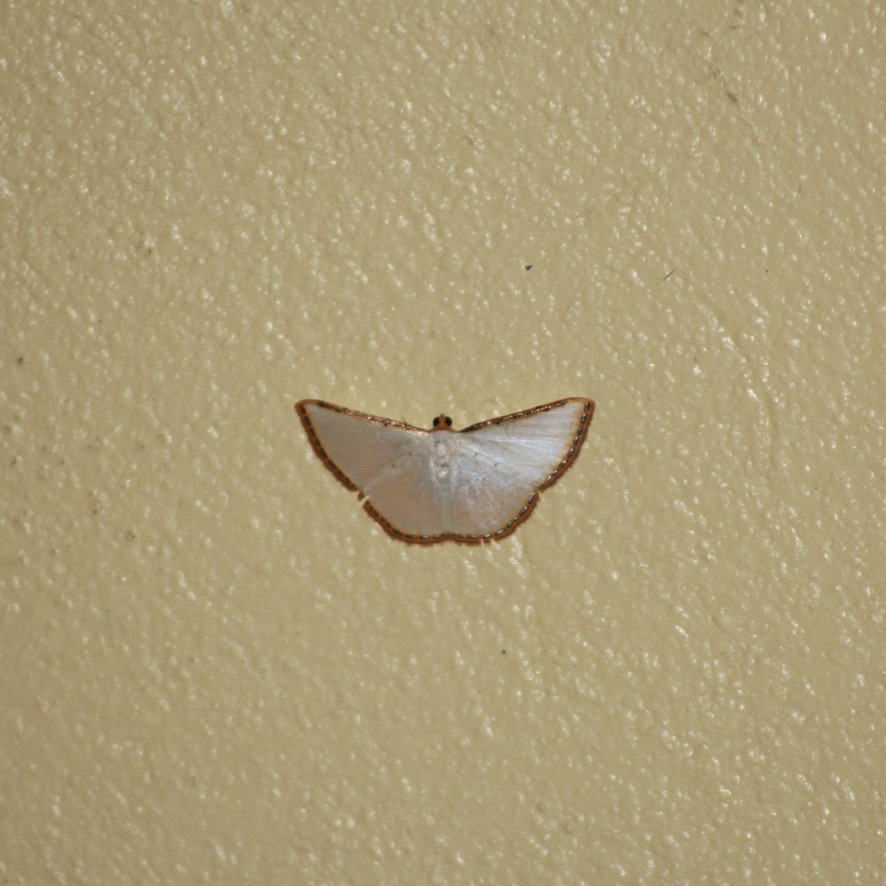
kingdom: Animalia
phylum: Arthropoda
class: Insecta
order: Lepidoptera
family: Geometridae
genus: Leuciris
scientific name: Leuciris fimbriaria
